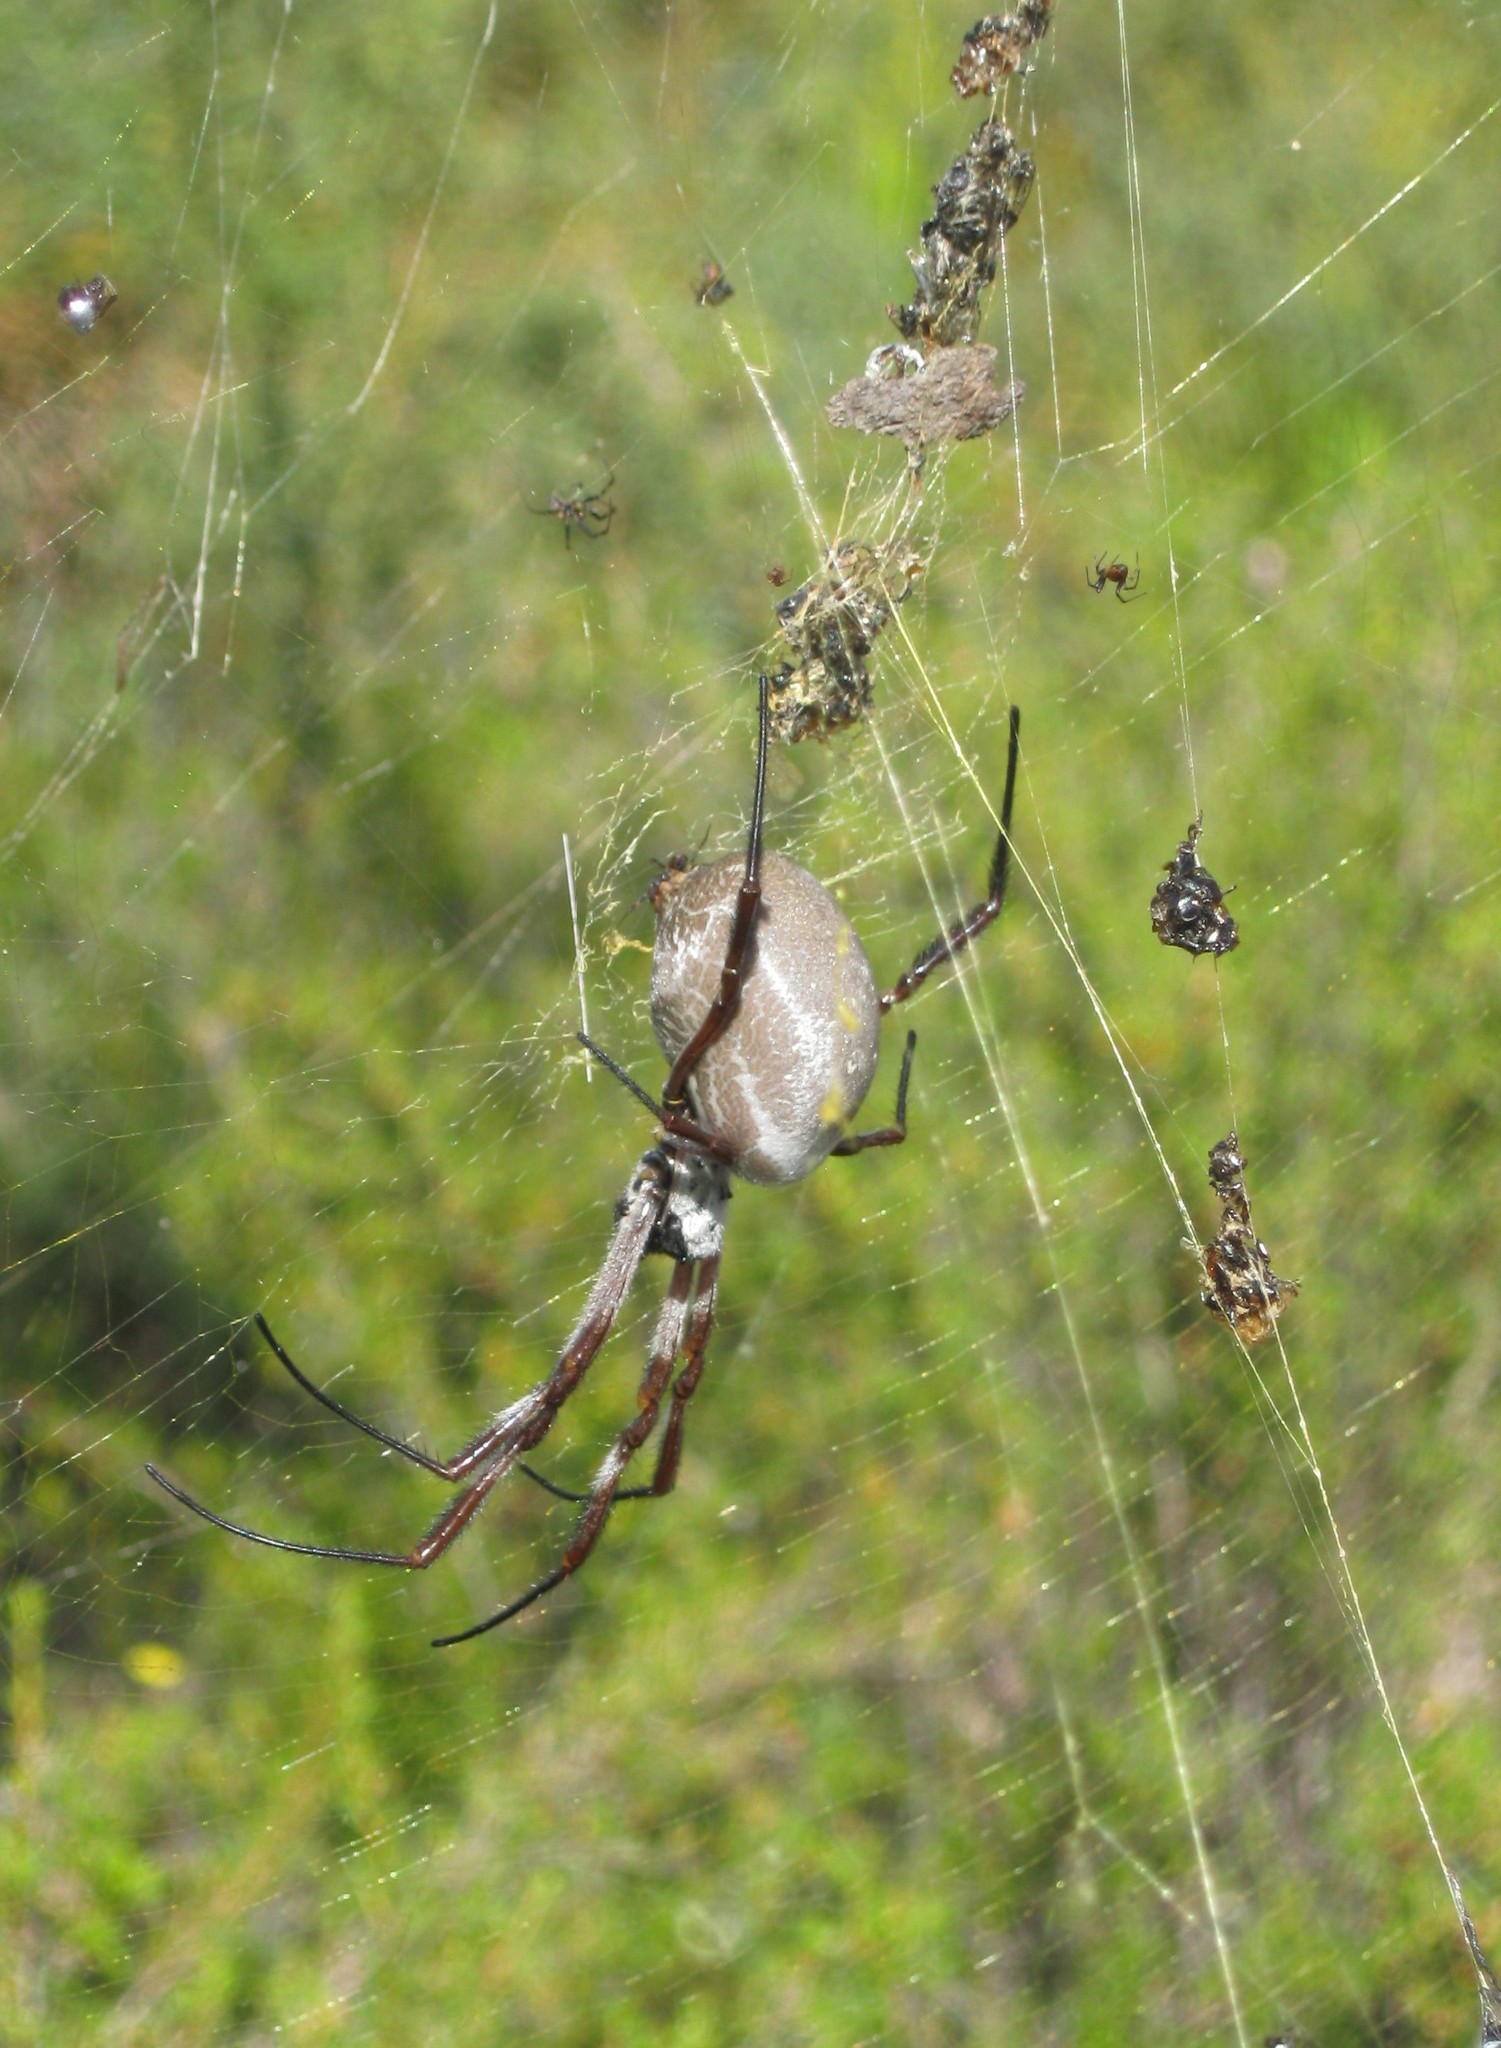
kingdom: Animalia
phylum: Arthropoda
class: Arachnida
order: Araneae
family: Araneidae
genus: Trichonephila
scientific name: Trichonephila edulis
